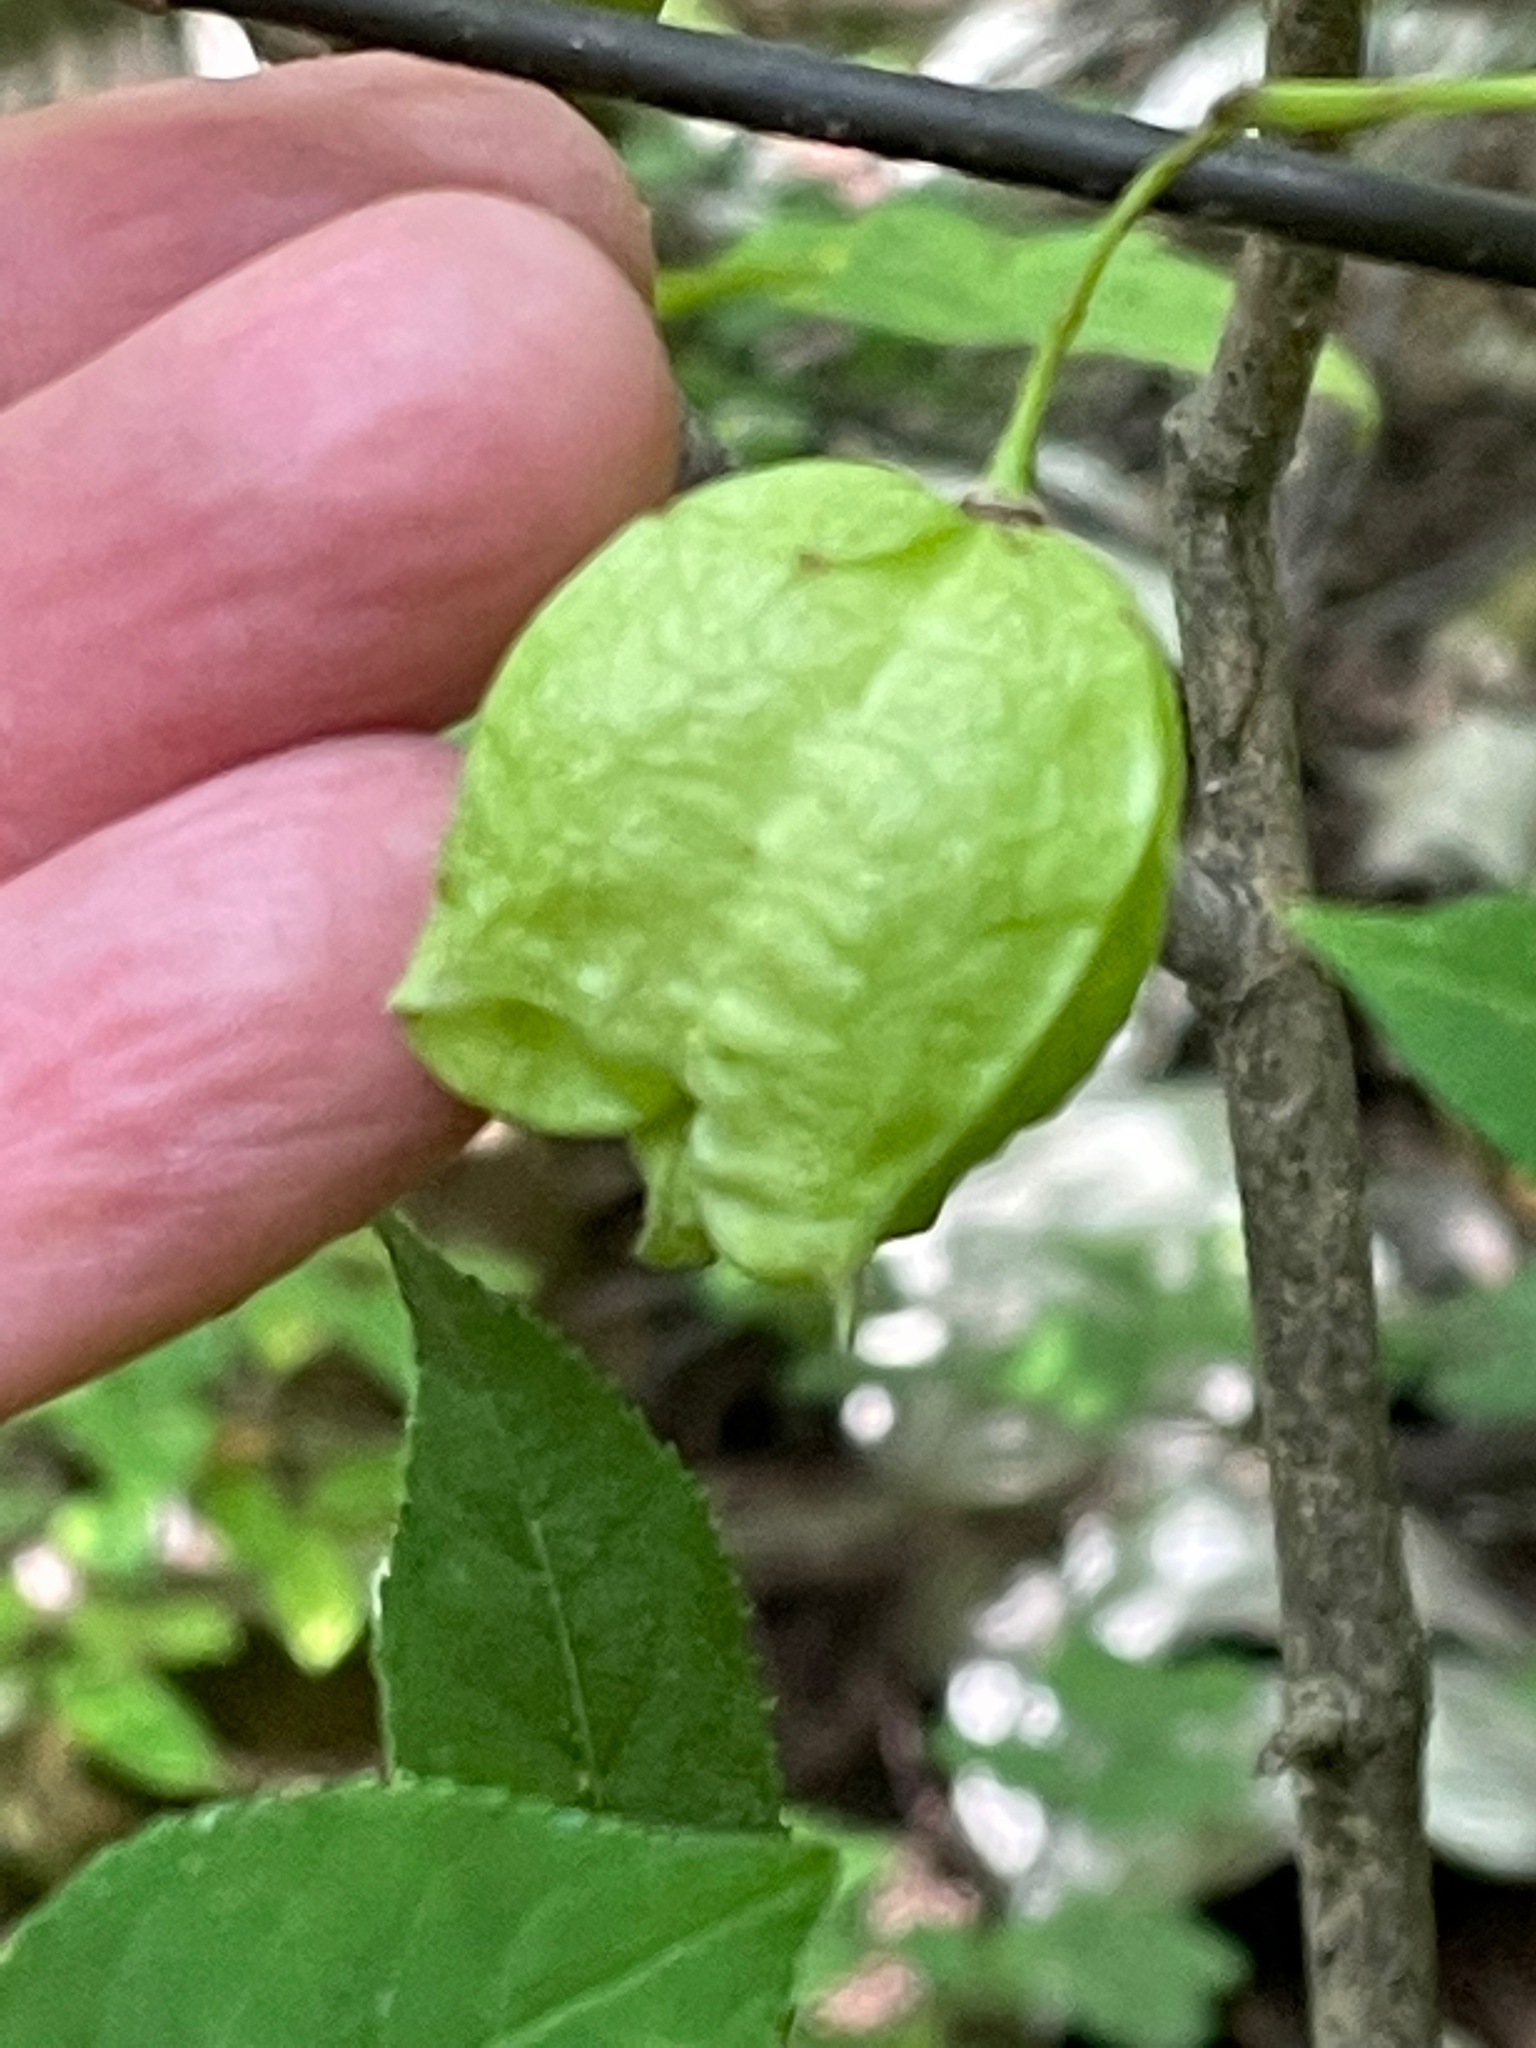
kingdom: Plantae
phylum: Tracheophyta
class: Magnoliopsida
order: Crossosomatales
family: Staphyleaceae
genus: Staphylea
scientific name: Staphylea trifolia
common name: American bladdernut
